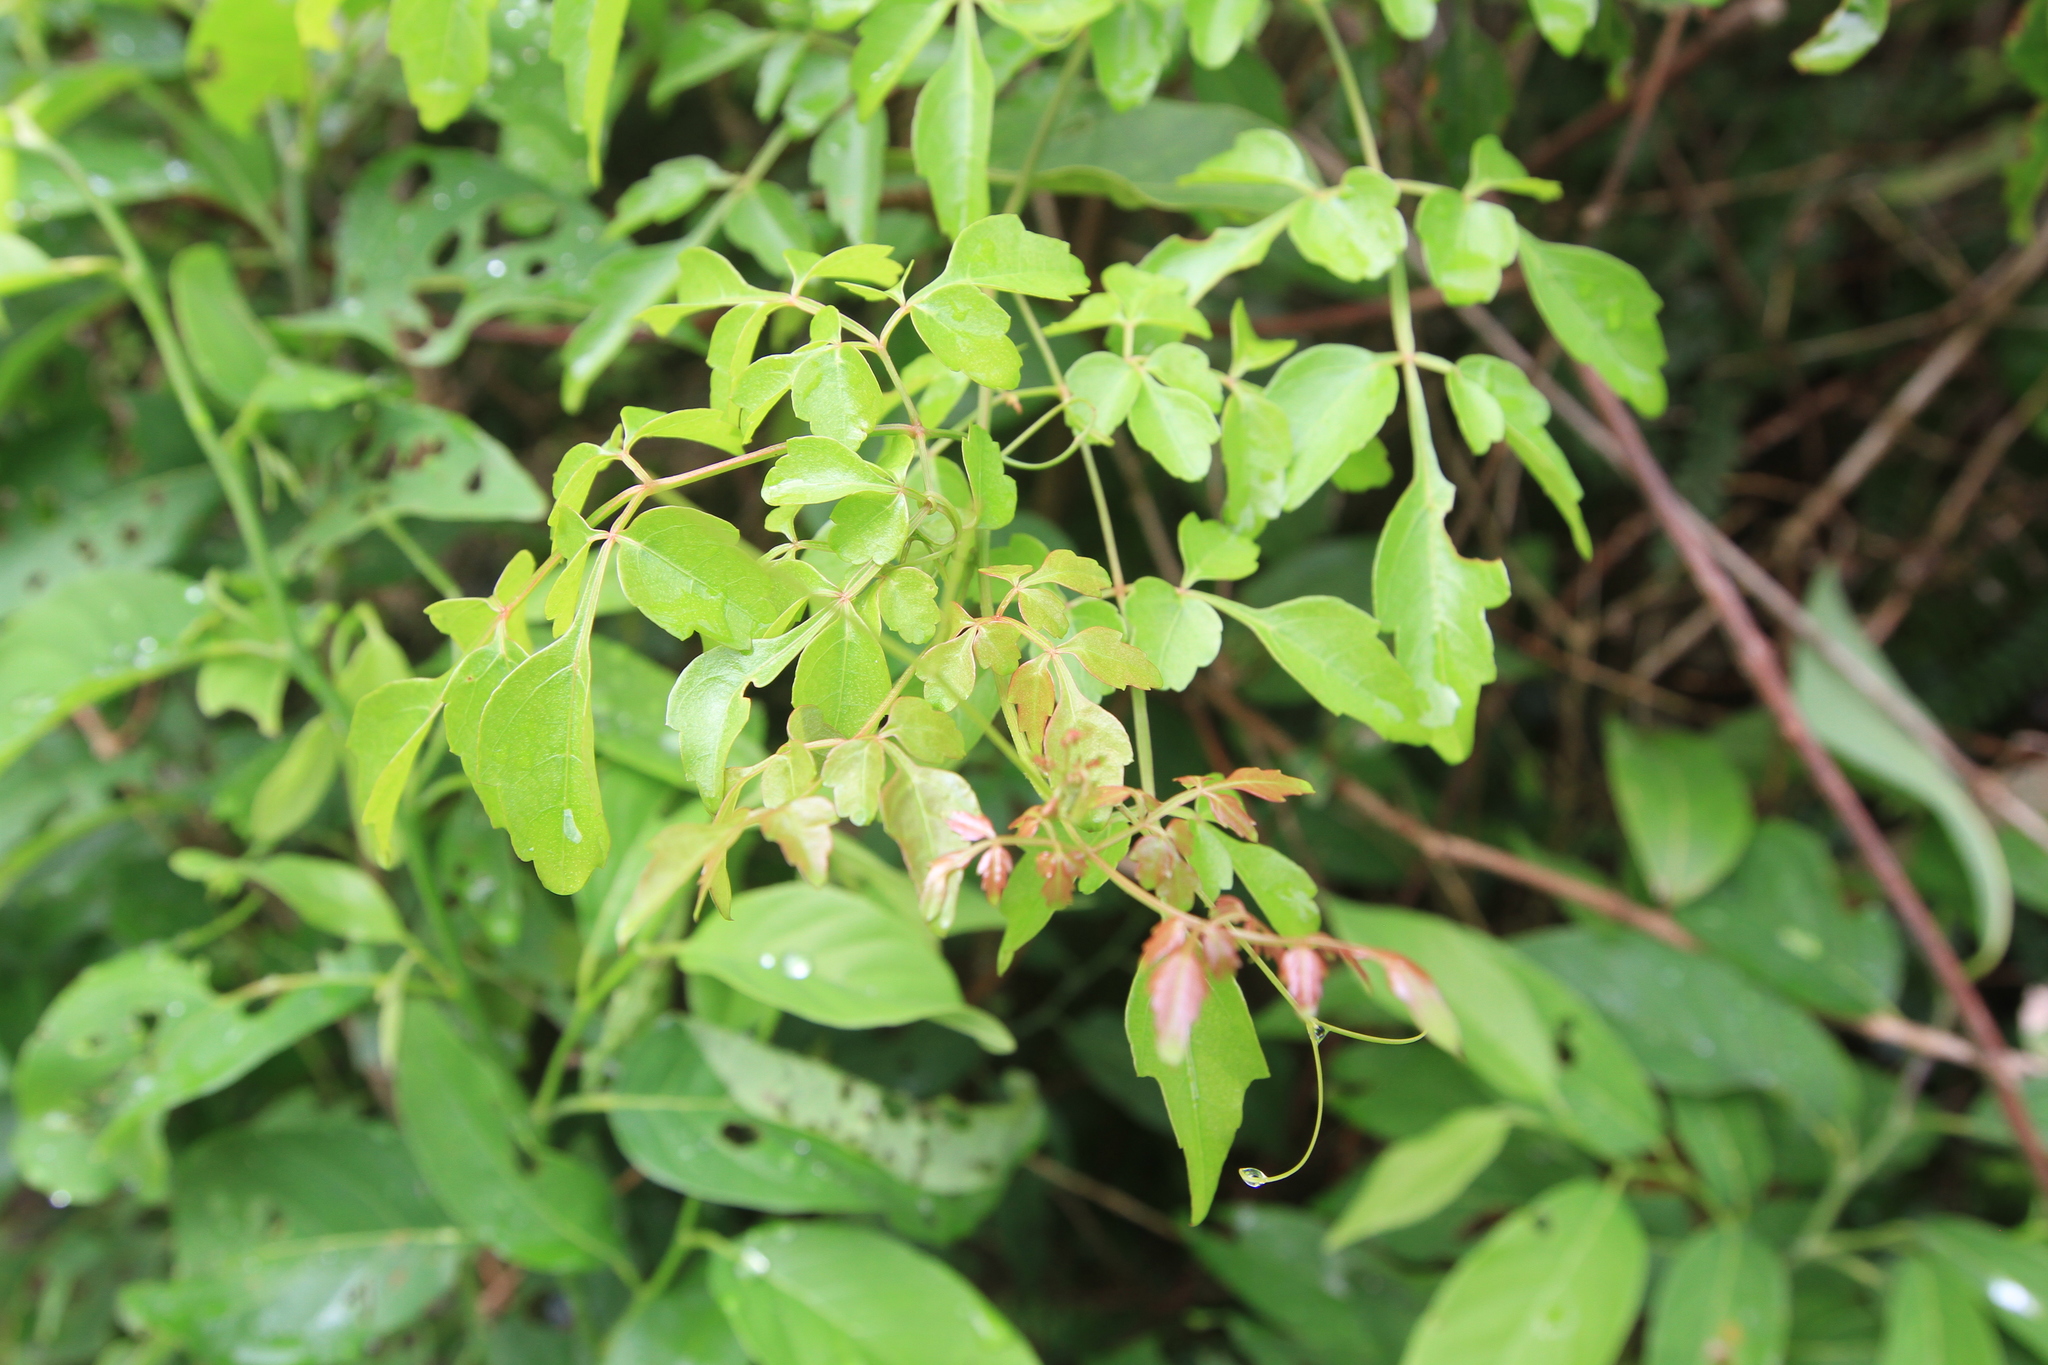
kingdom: Plantae
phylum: Tracheophyta
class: Magnoliopsida
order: Sapindales
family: Sapindaceae
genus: Serjania
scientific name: Serjania polyphylla
